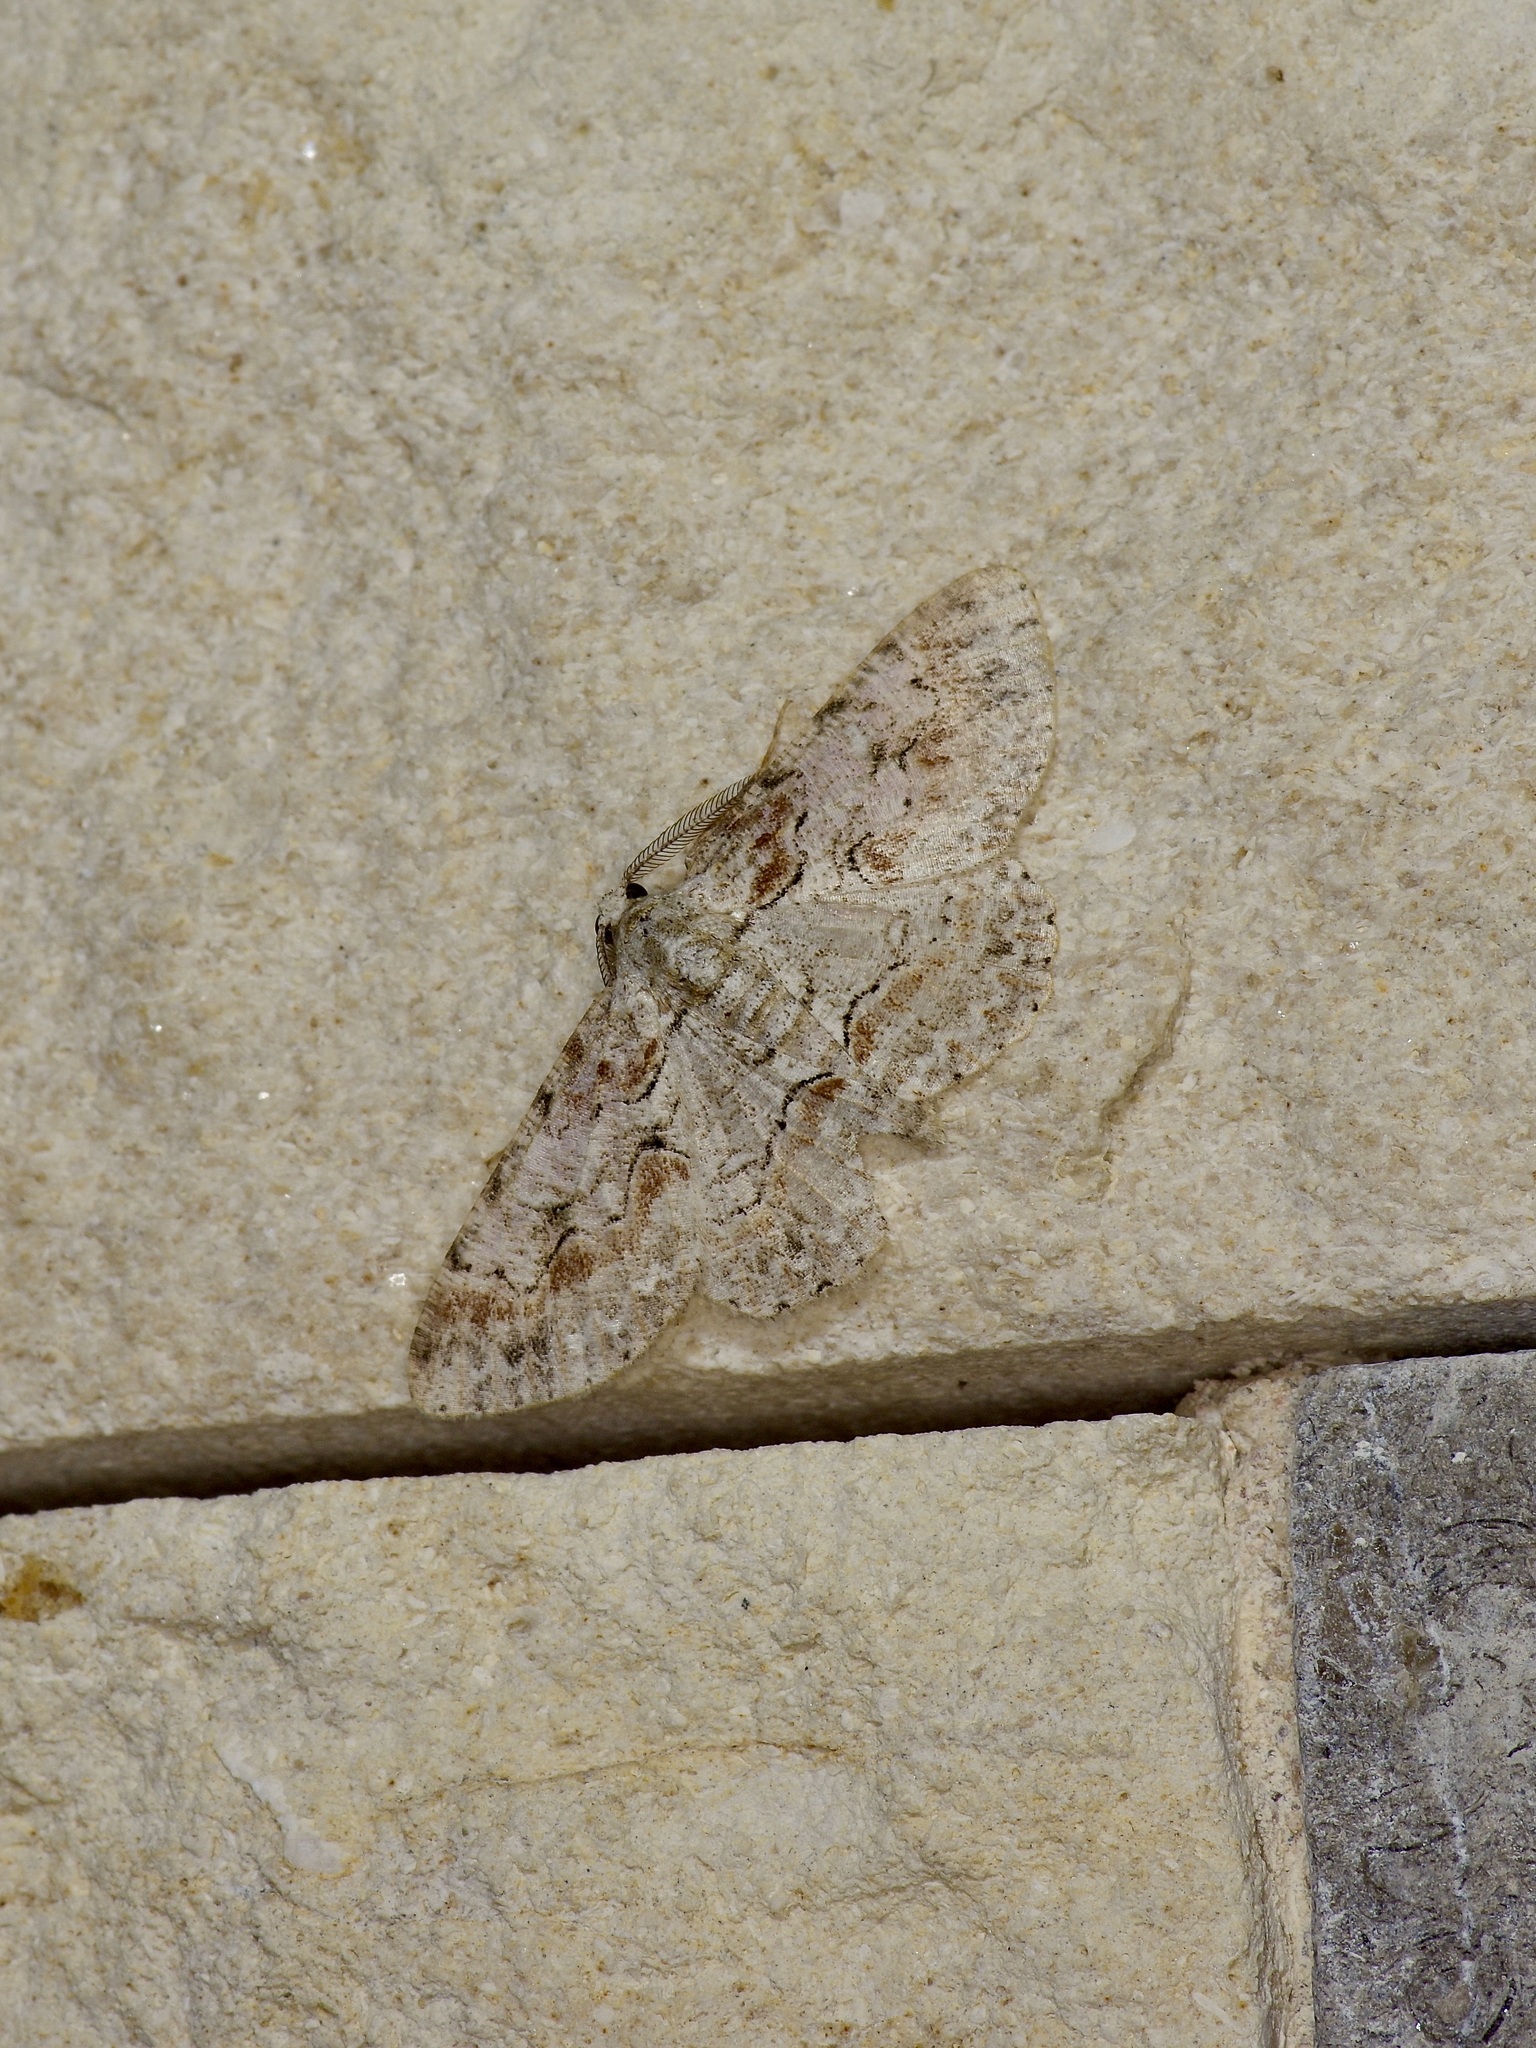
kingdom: Animalia
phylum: Arthropoda
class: Insecta
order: Lepidoptera
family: Geometridae
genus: Iridopsis
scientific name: Iridopsis defectaria
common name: Brown-shaded gray
